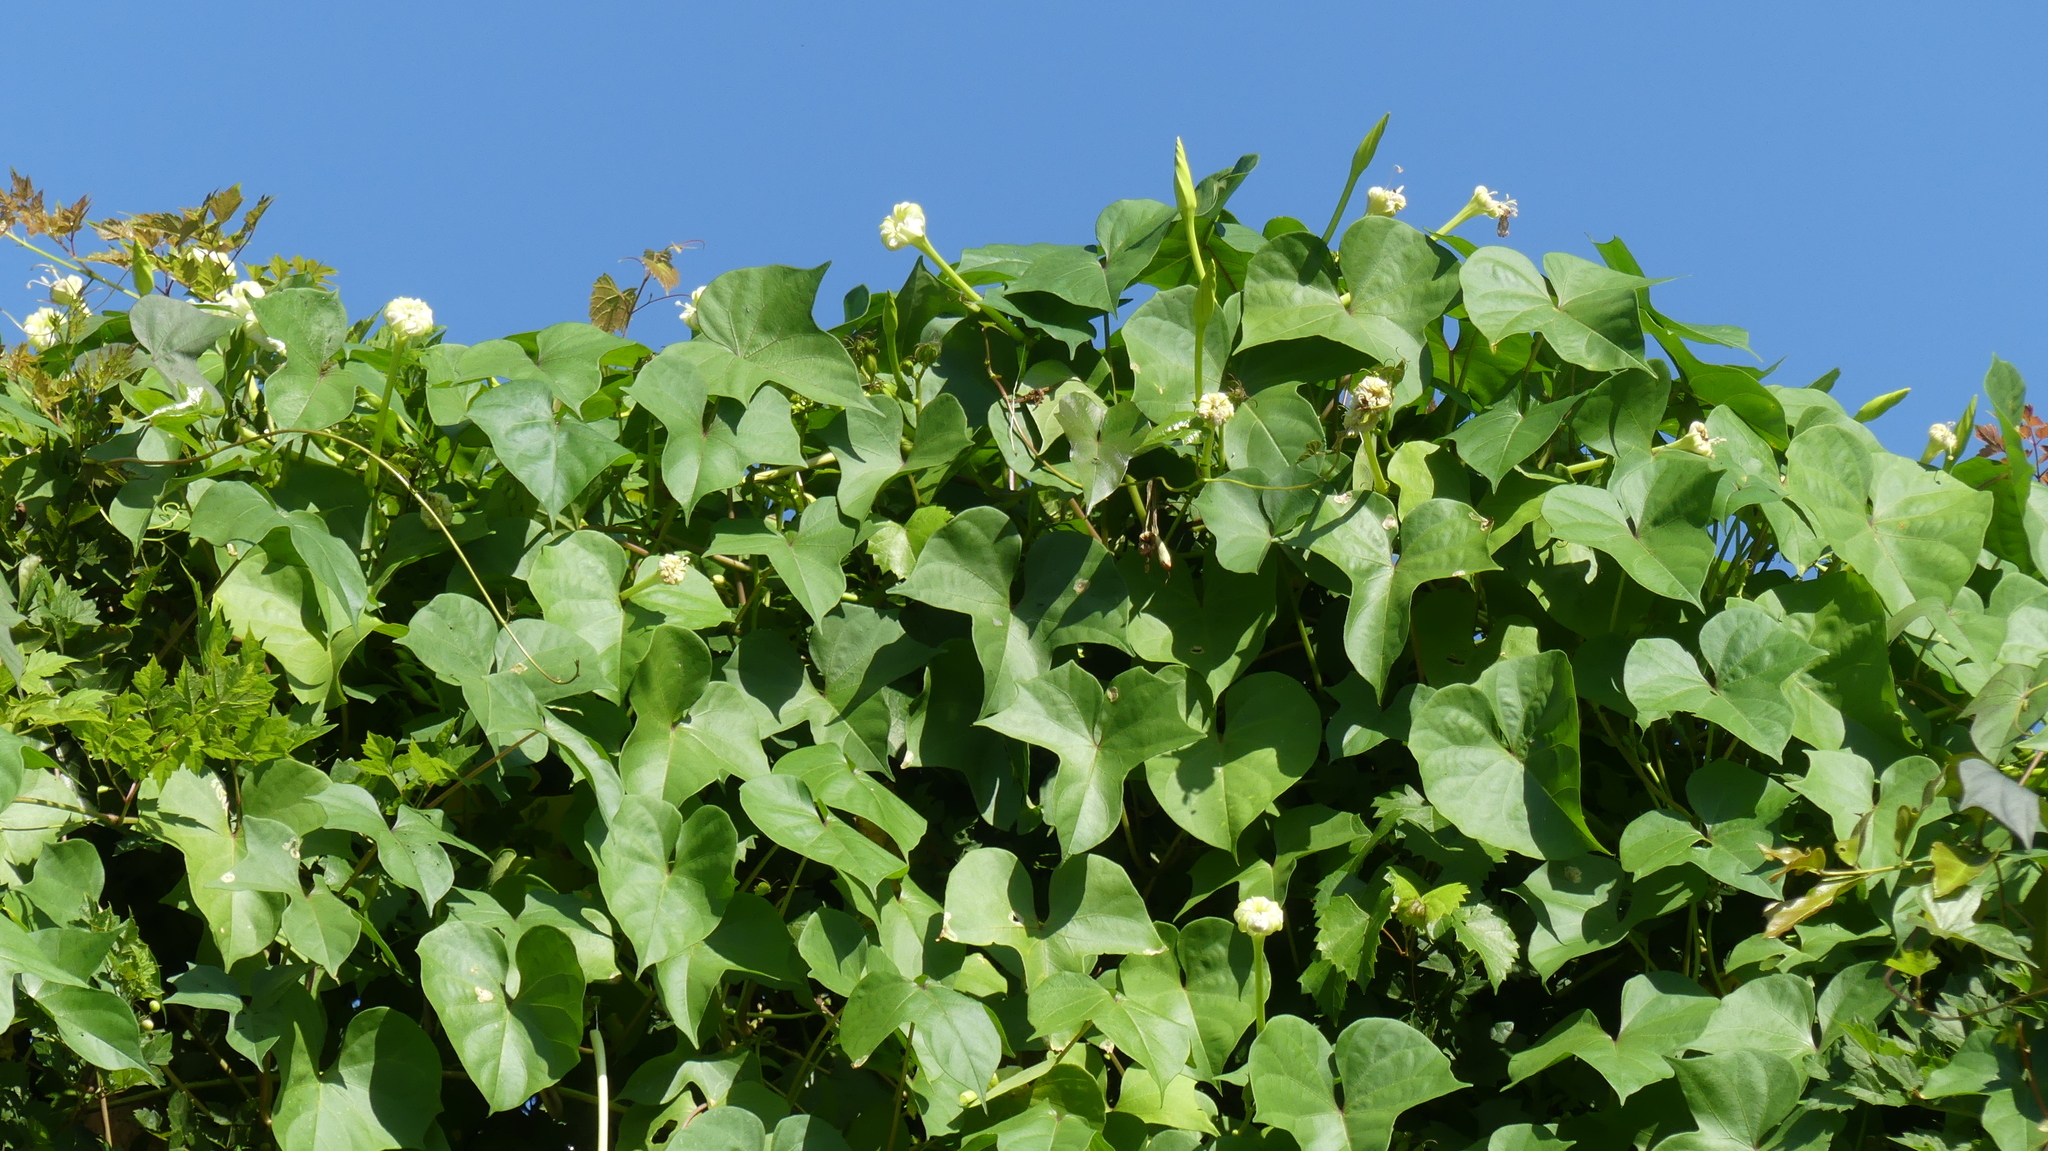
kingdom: Plantae
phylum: Tracheophyta
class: Magnoliopsida
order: Solanales
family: Convolvulaceae
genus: Ipomoea
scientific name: Ipomoea alba
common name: Moonflower
